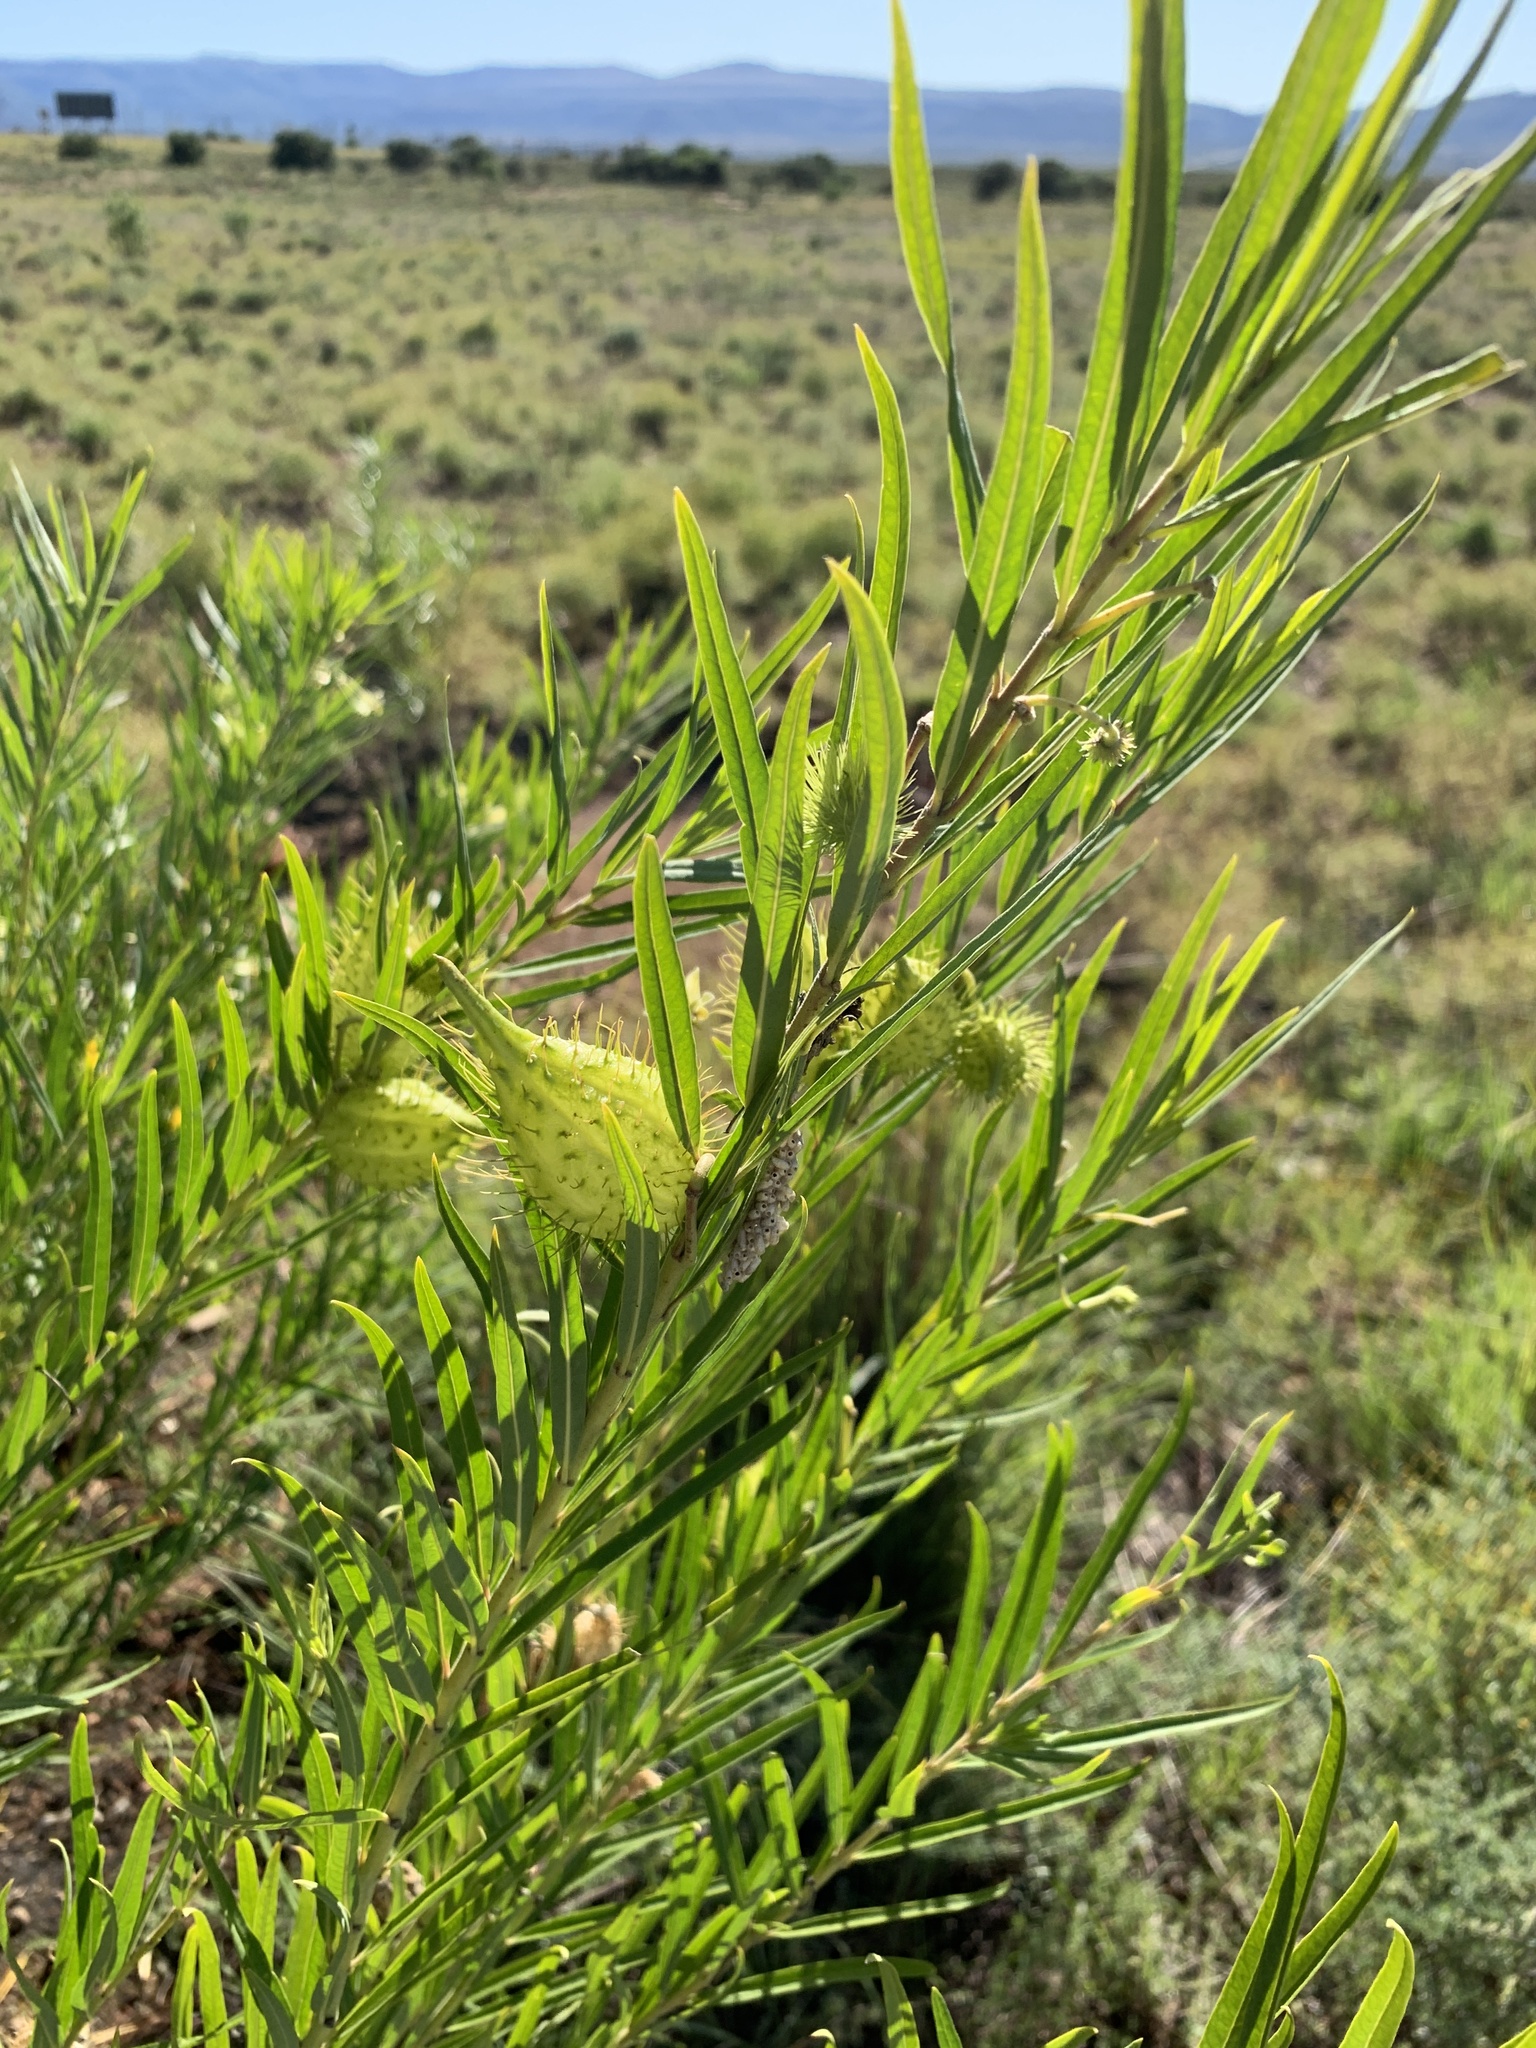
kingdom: Plantae
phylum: Tracheophyta
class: Magnoliopsida
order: Gentianales
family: Apocynaceae
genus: Gomphocarpus
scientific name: Gomphocarpus fruticosus
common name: Milkweed
